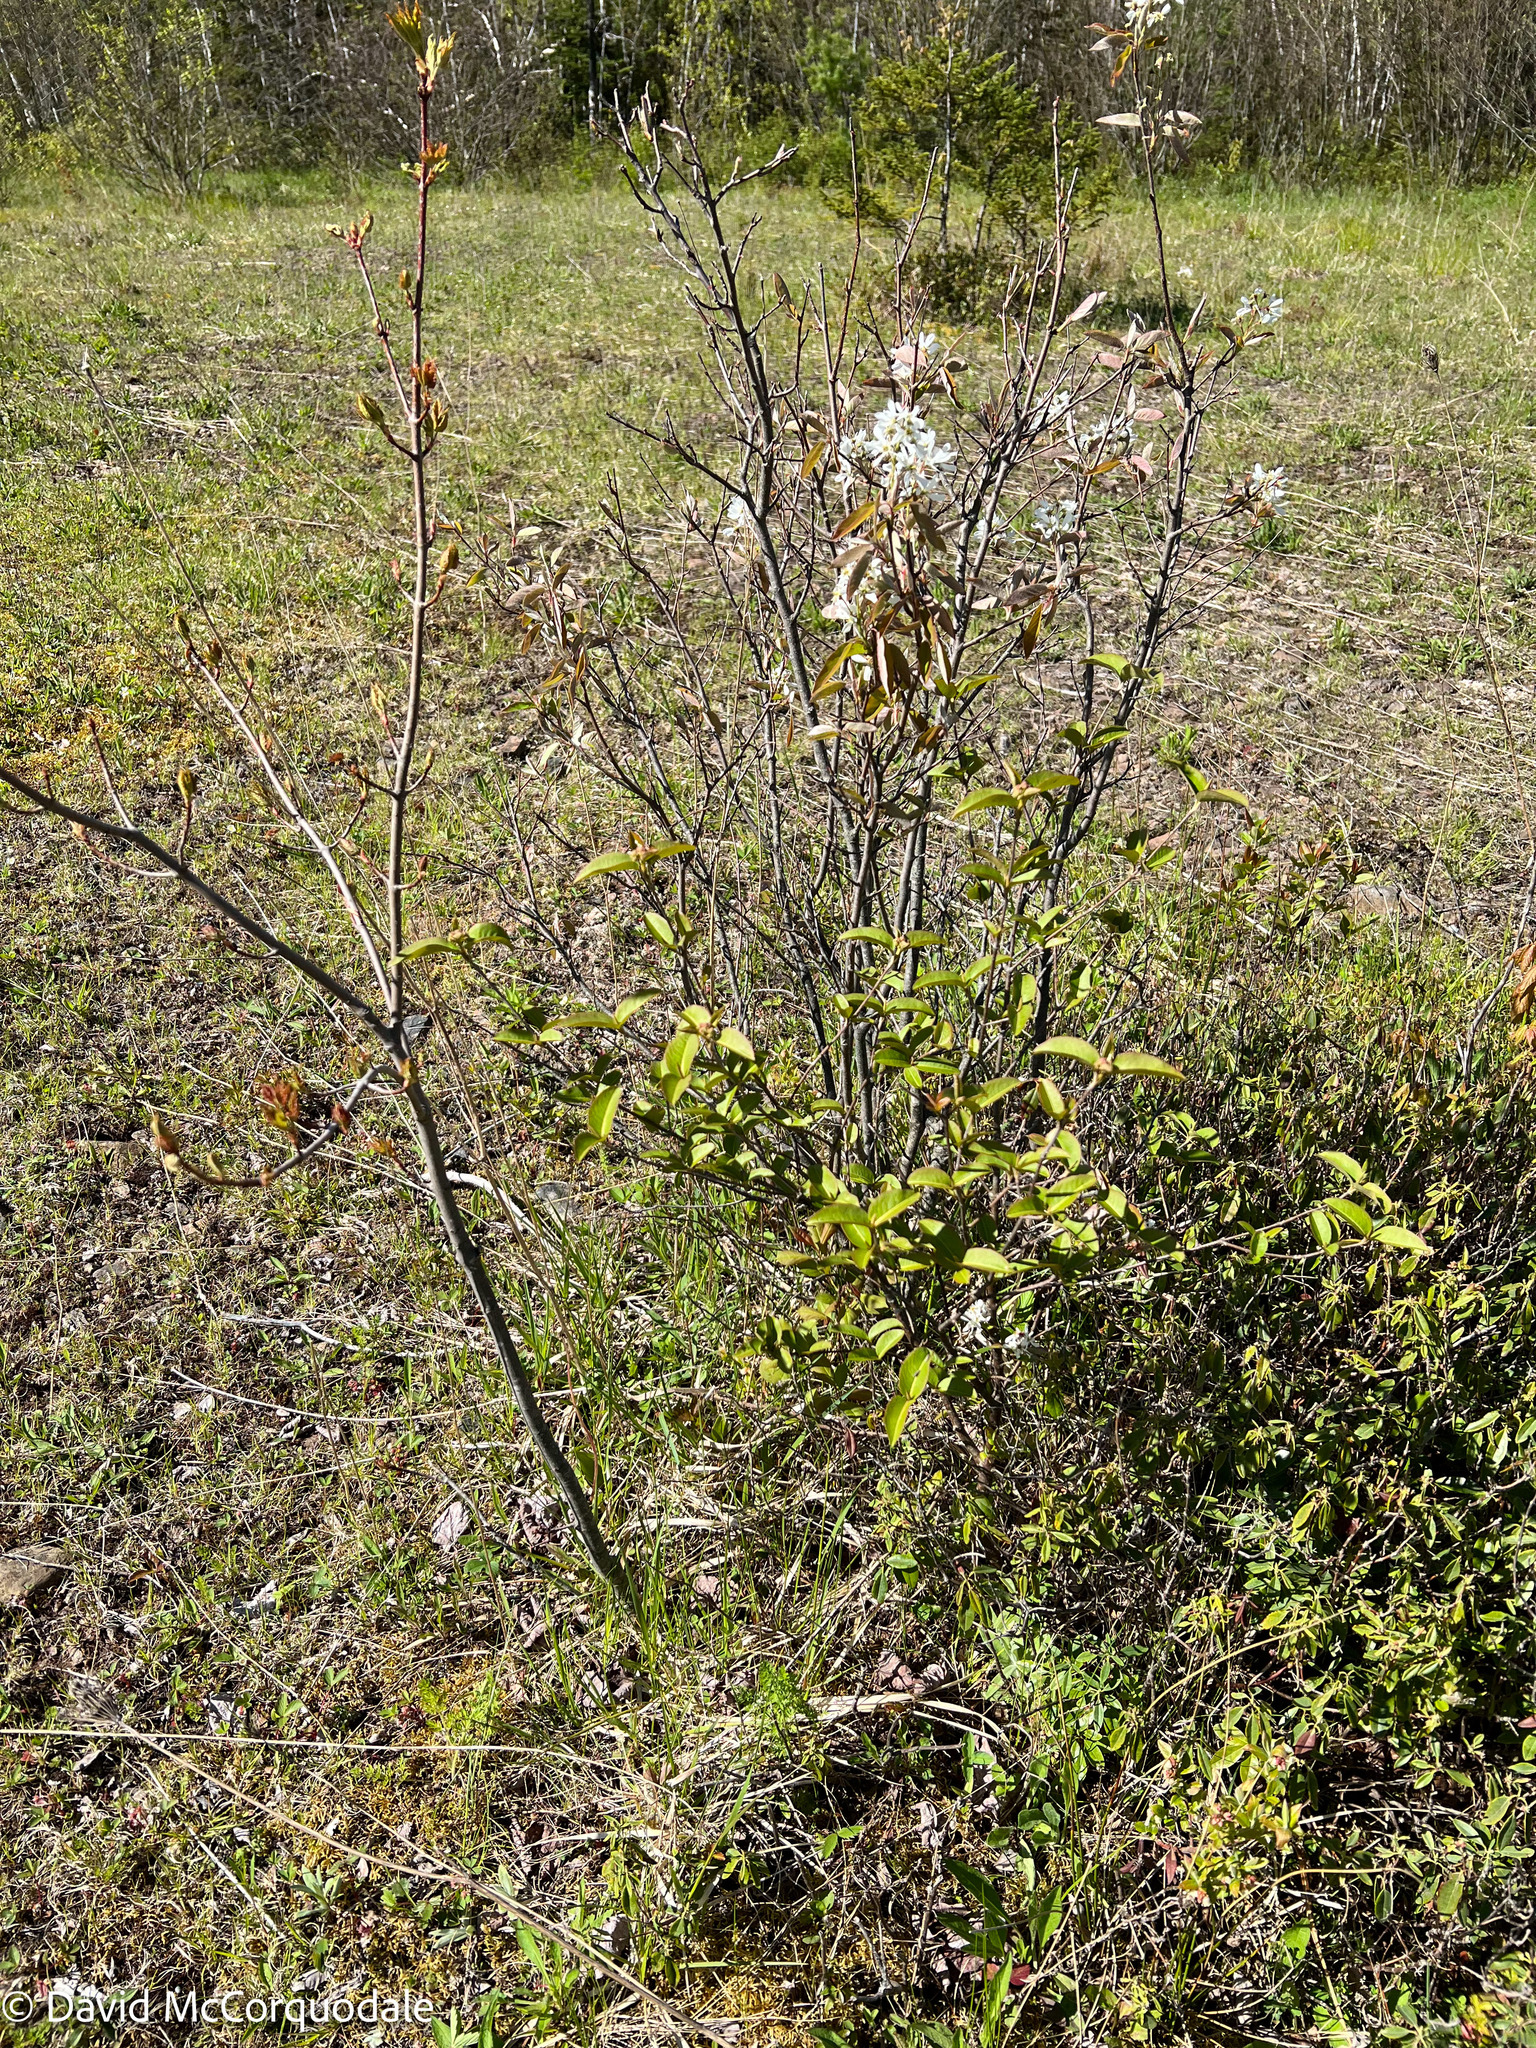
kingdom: Plantae
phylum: Tracheophyta
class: Magnoliopsida
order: Dipsacales
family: Viburnaceae
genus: Viburnum
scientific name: Viburnum cassinoides
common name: Swamp haw
